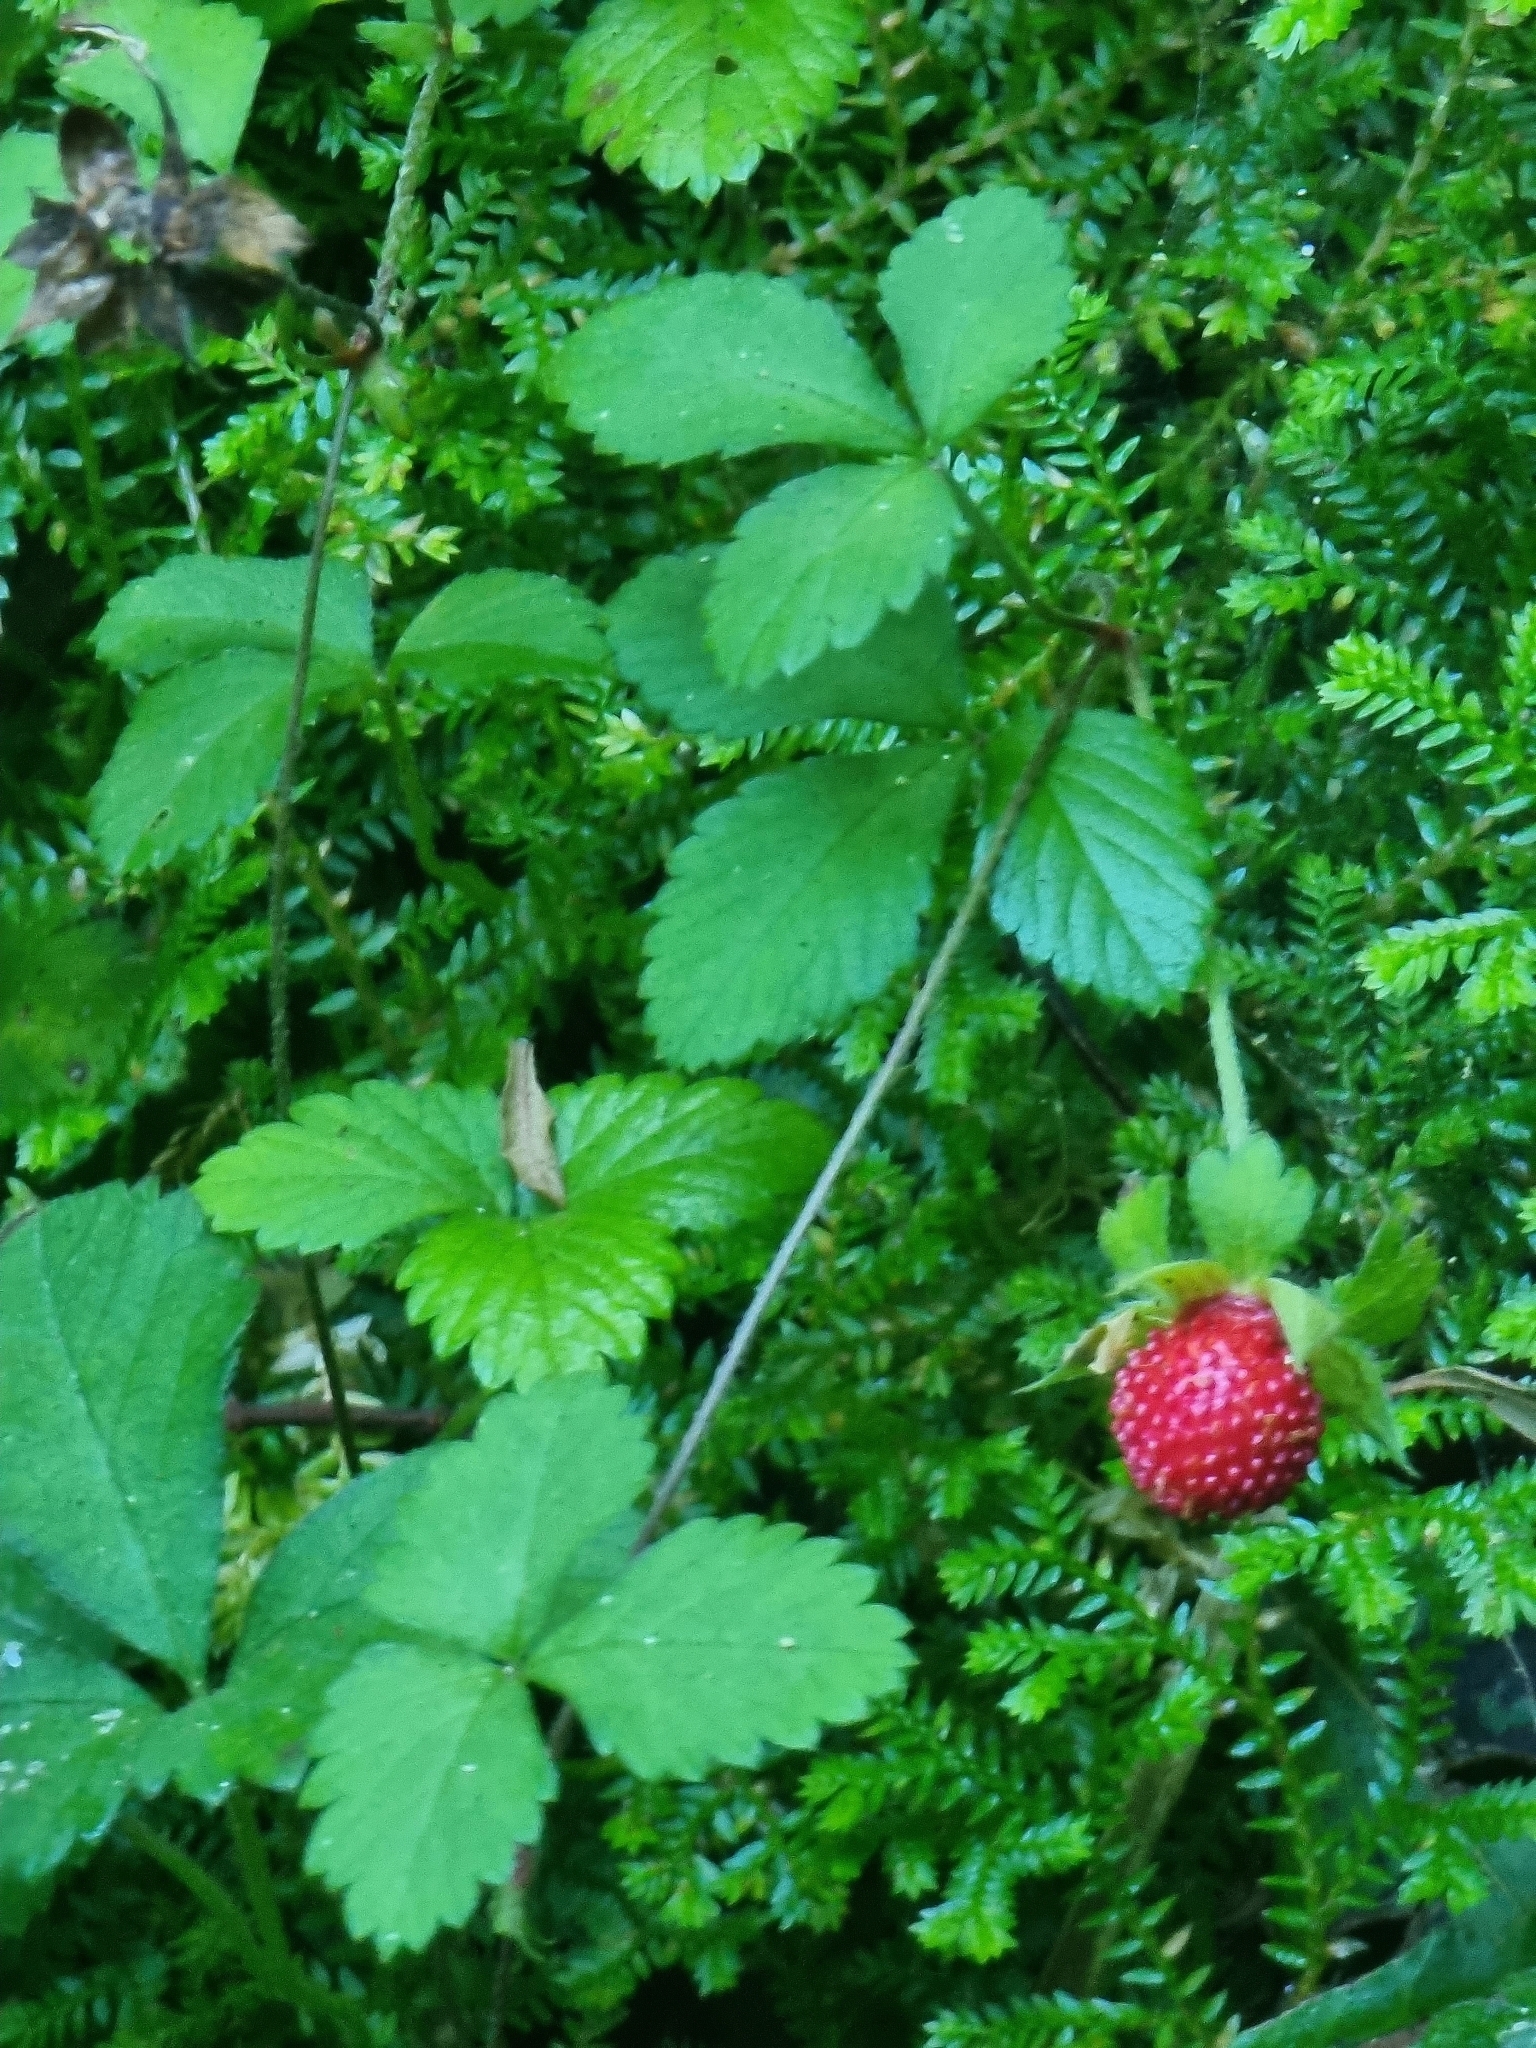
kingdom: Plantae
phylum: Tracheophyta
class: Magnoliopsida
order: Rosales
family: Rosaceae
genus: Potentilla
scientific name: Potentilla indica
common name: Yellow-flowered strawberry
